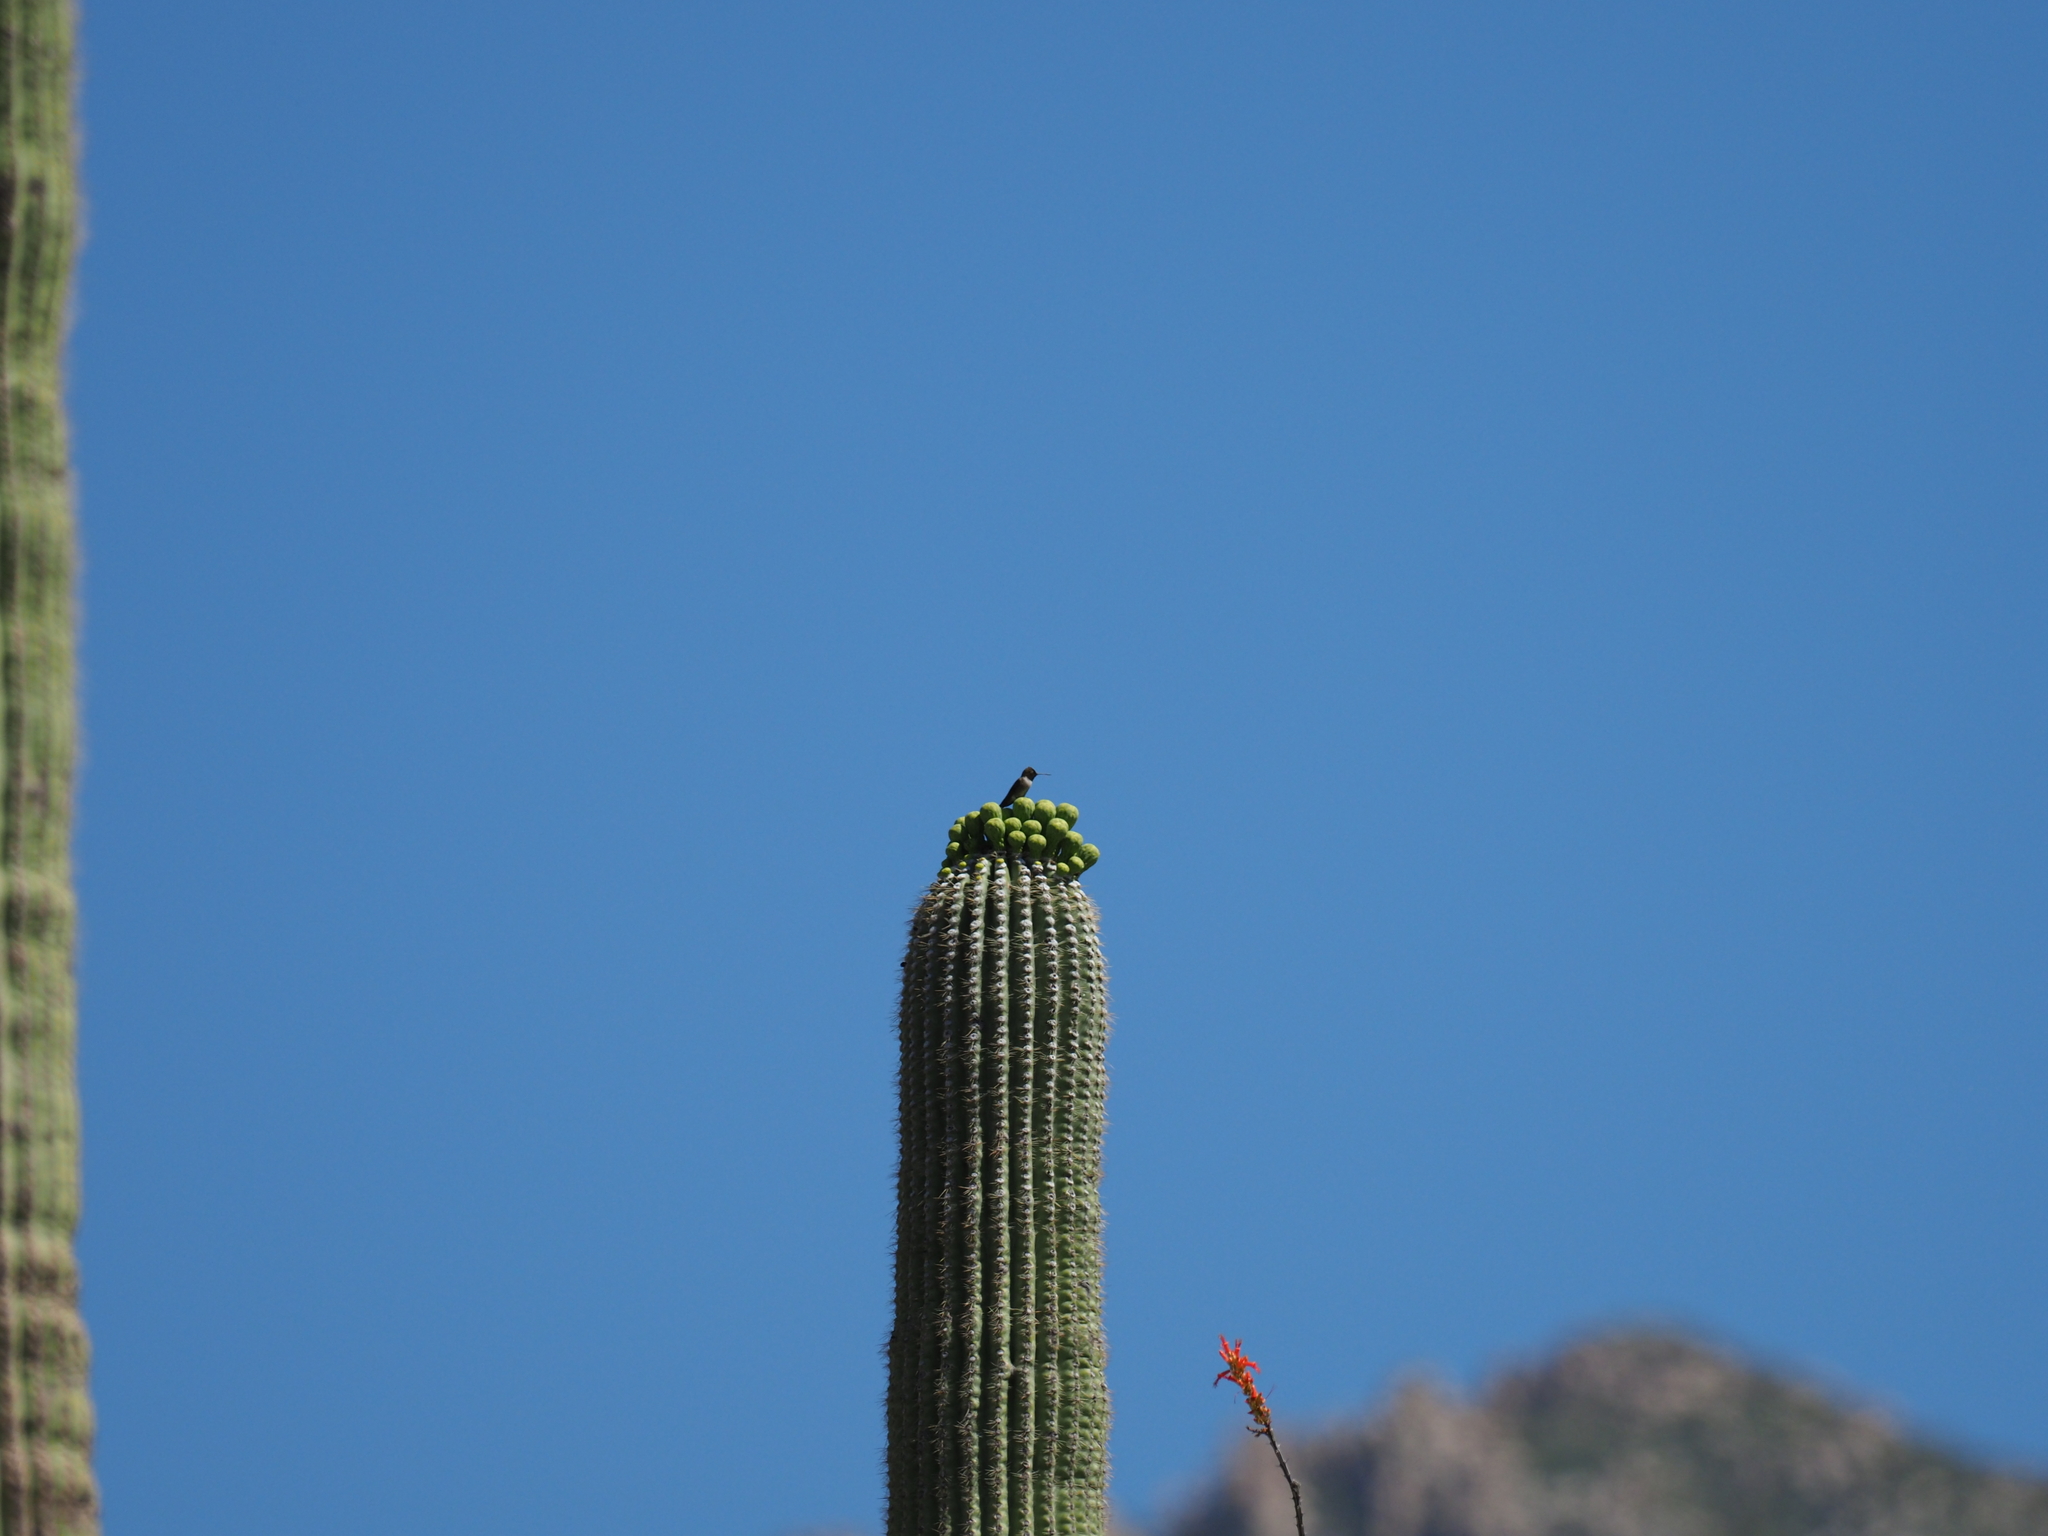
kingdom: Animalia
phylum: Chordata
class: Aves
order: Apodiformes
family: Trochilidae
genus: Archilochus
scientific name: Archilochus alexandri
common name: Black-chinned hummingbird
